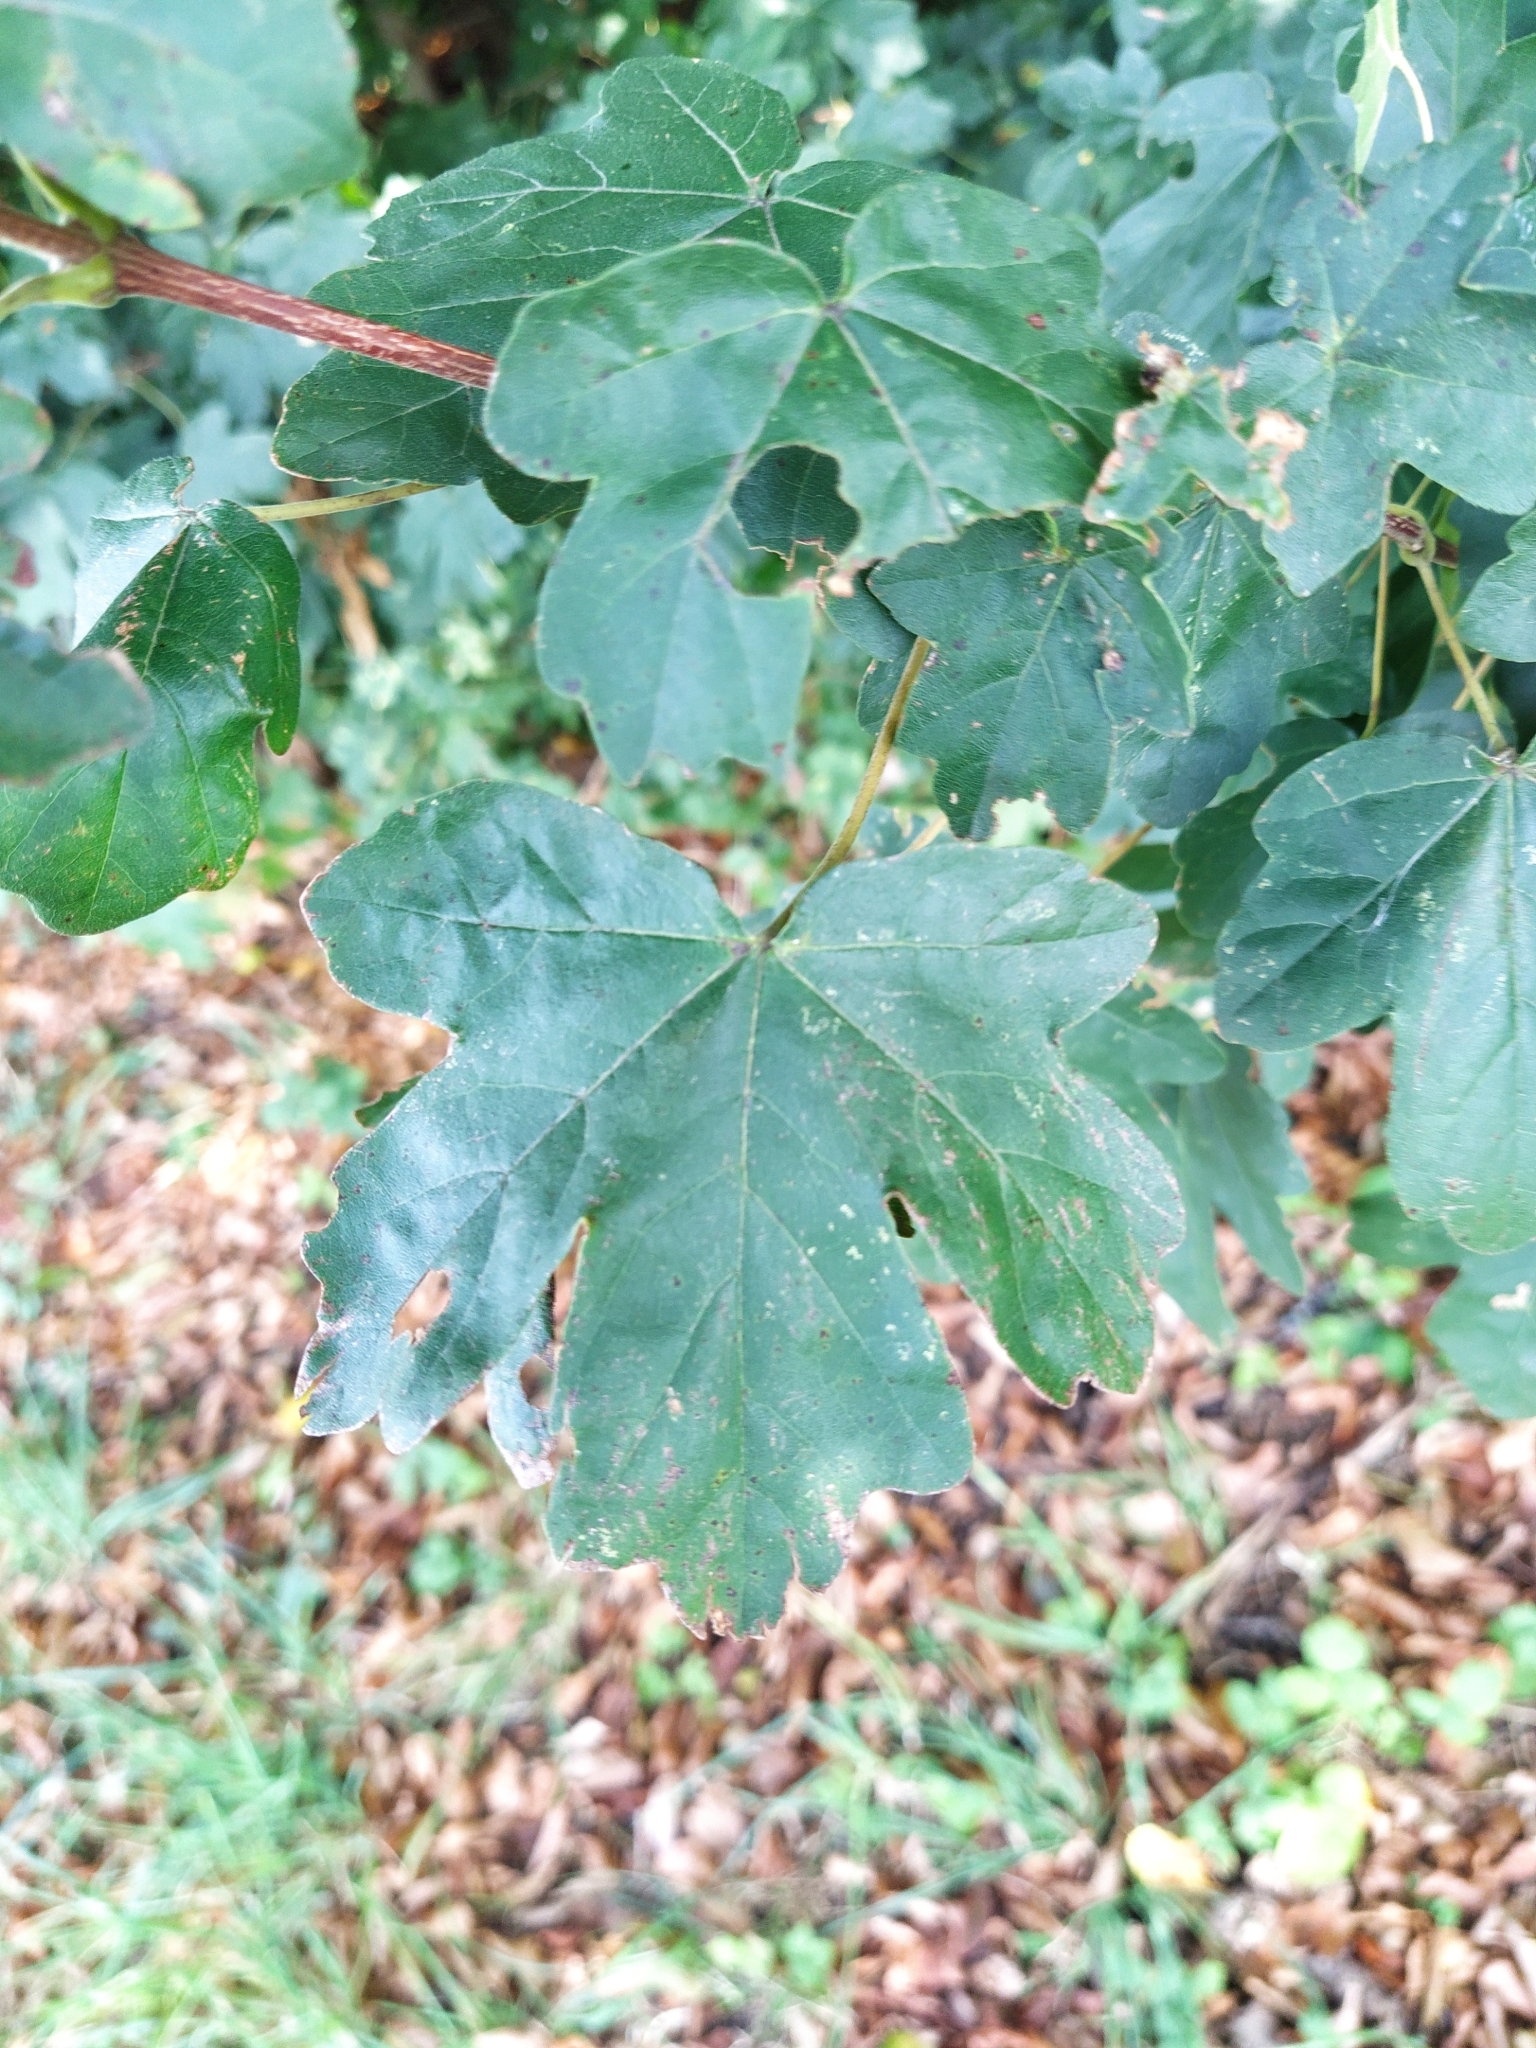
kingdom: Plantae
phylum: Tracheophyta
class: Magnoliopsida
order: Sapindales
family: Sapindaceae
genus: Acer
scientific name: Acer campestre
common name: Field maple
